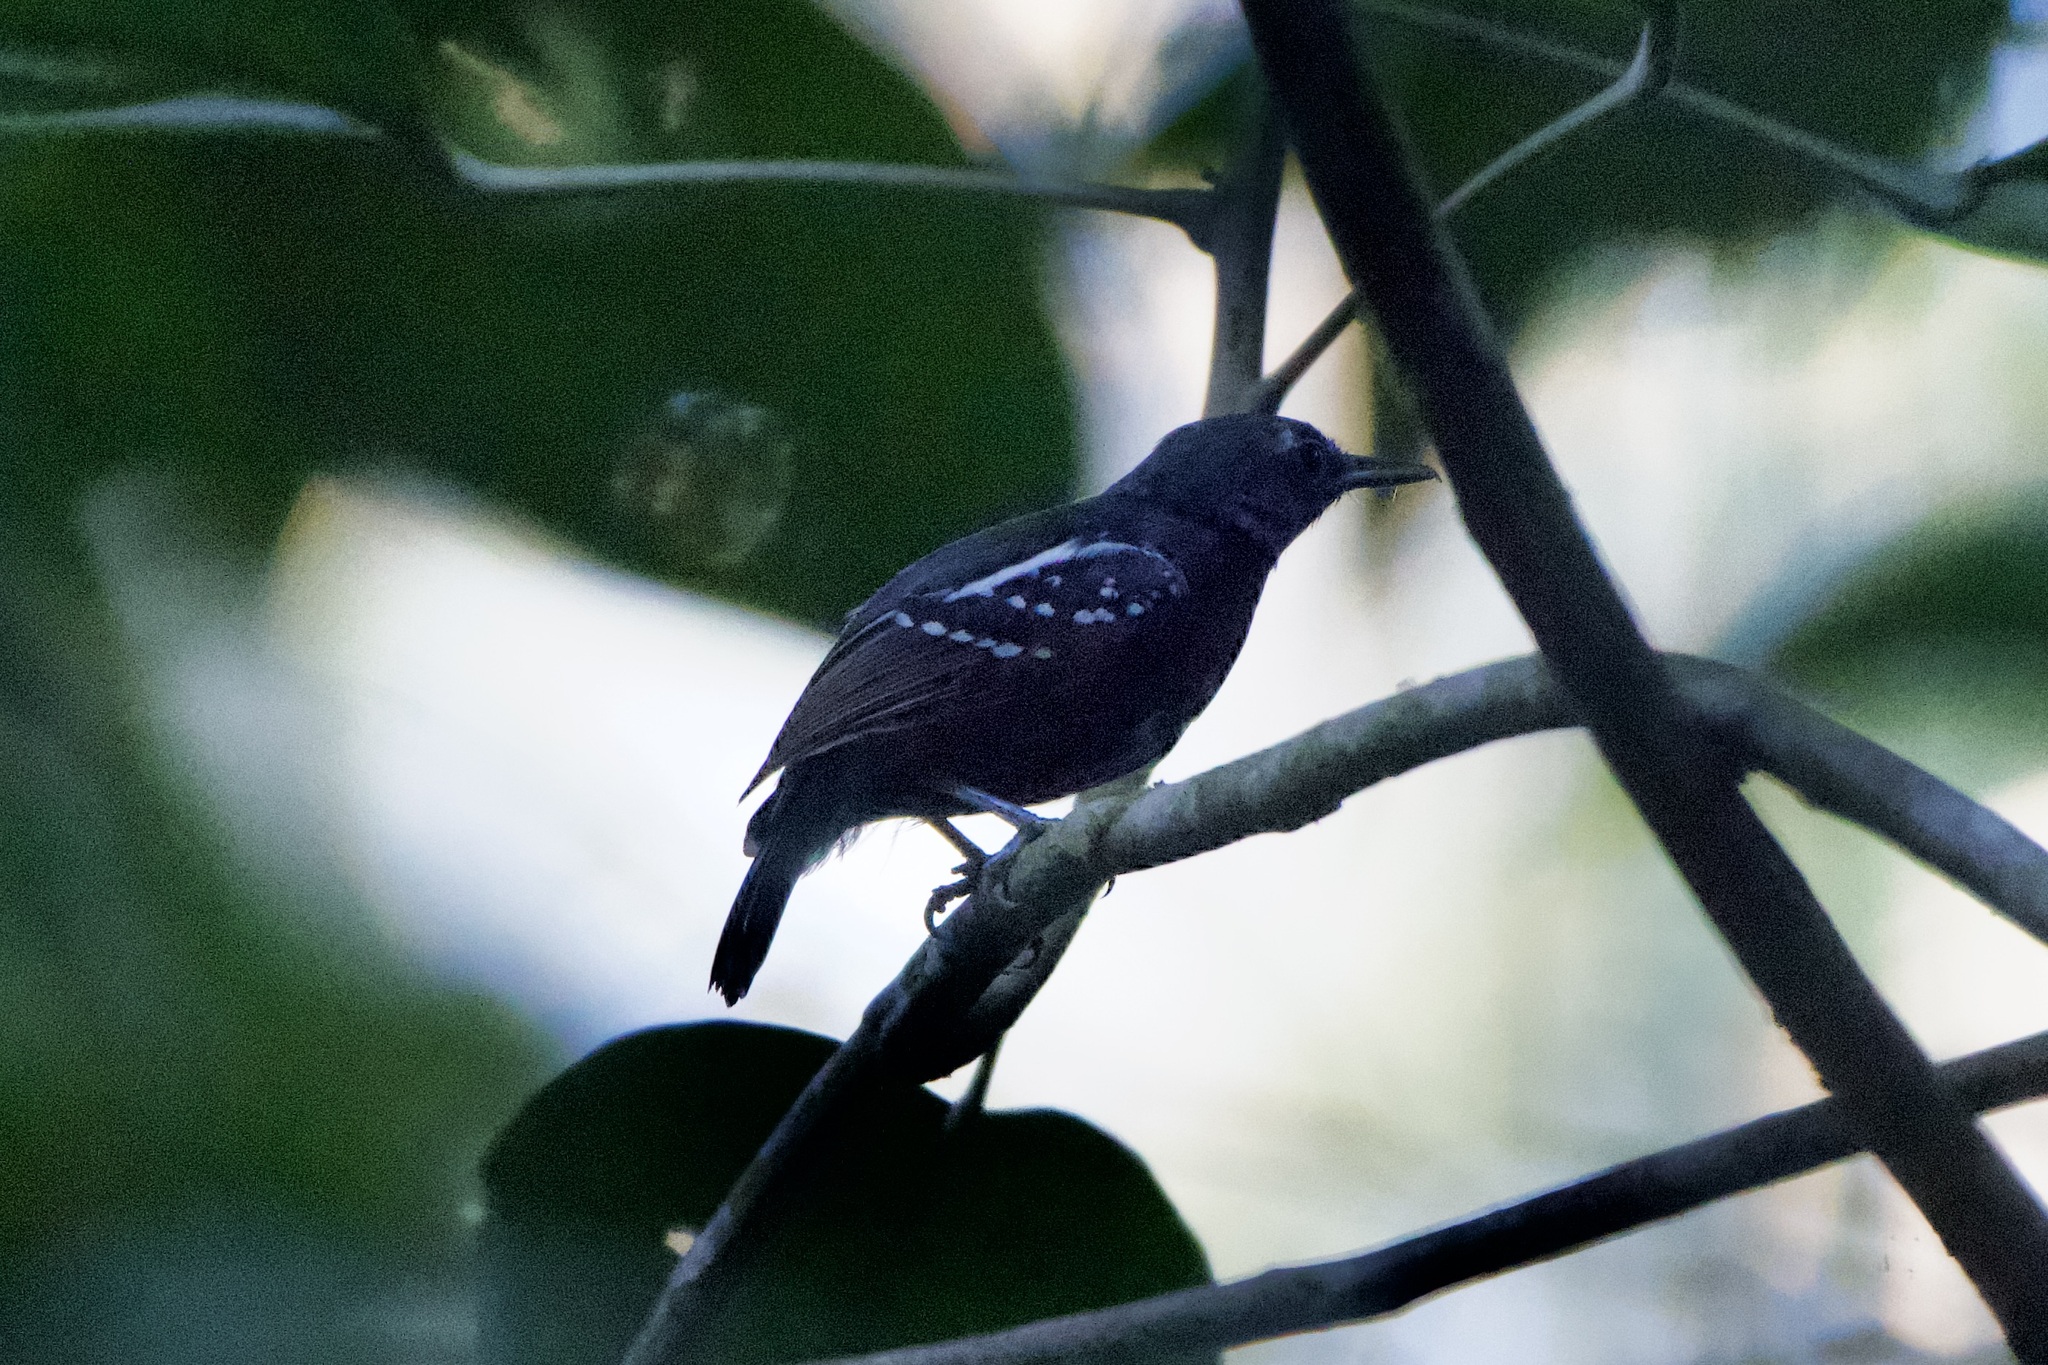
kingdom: Animalia
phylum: Chordata
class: Aves
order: Passeriformes
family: Thamnophilidae
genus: Myrmotherula
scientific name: Myrmotherula axillaris
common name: White-flanked antwren
